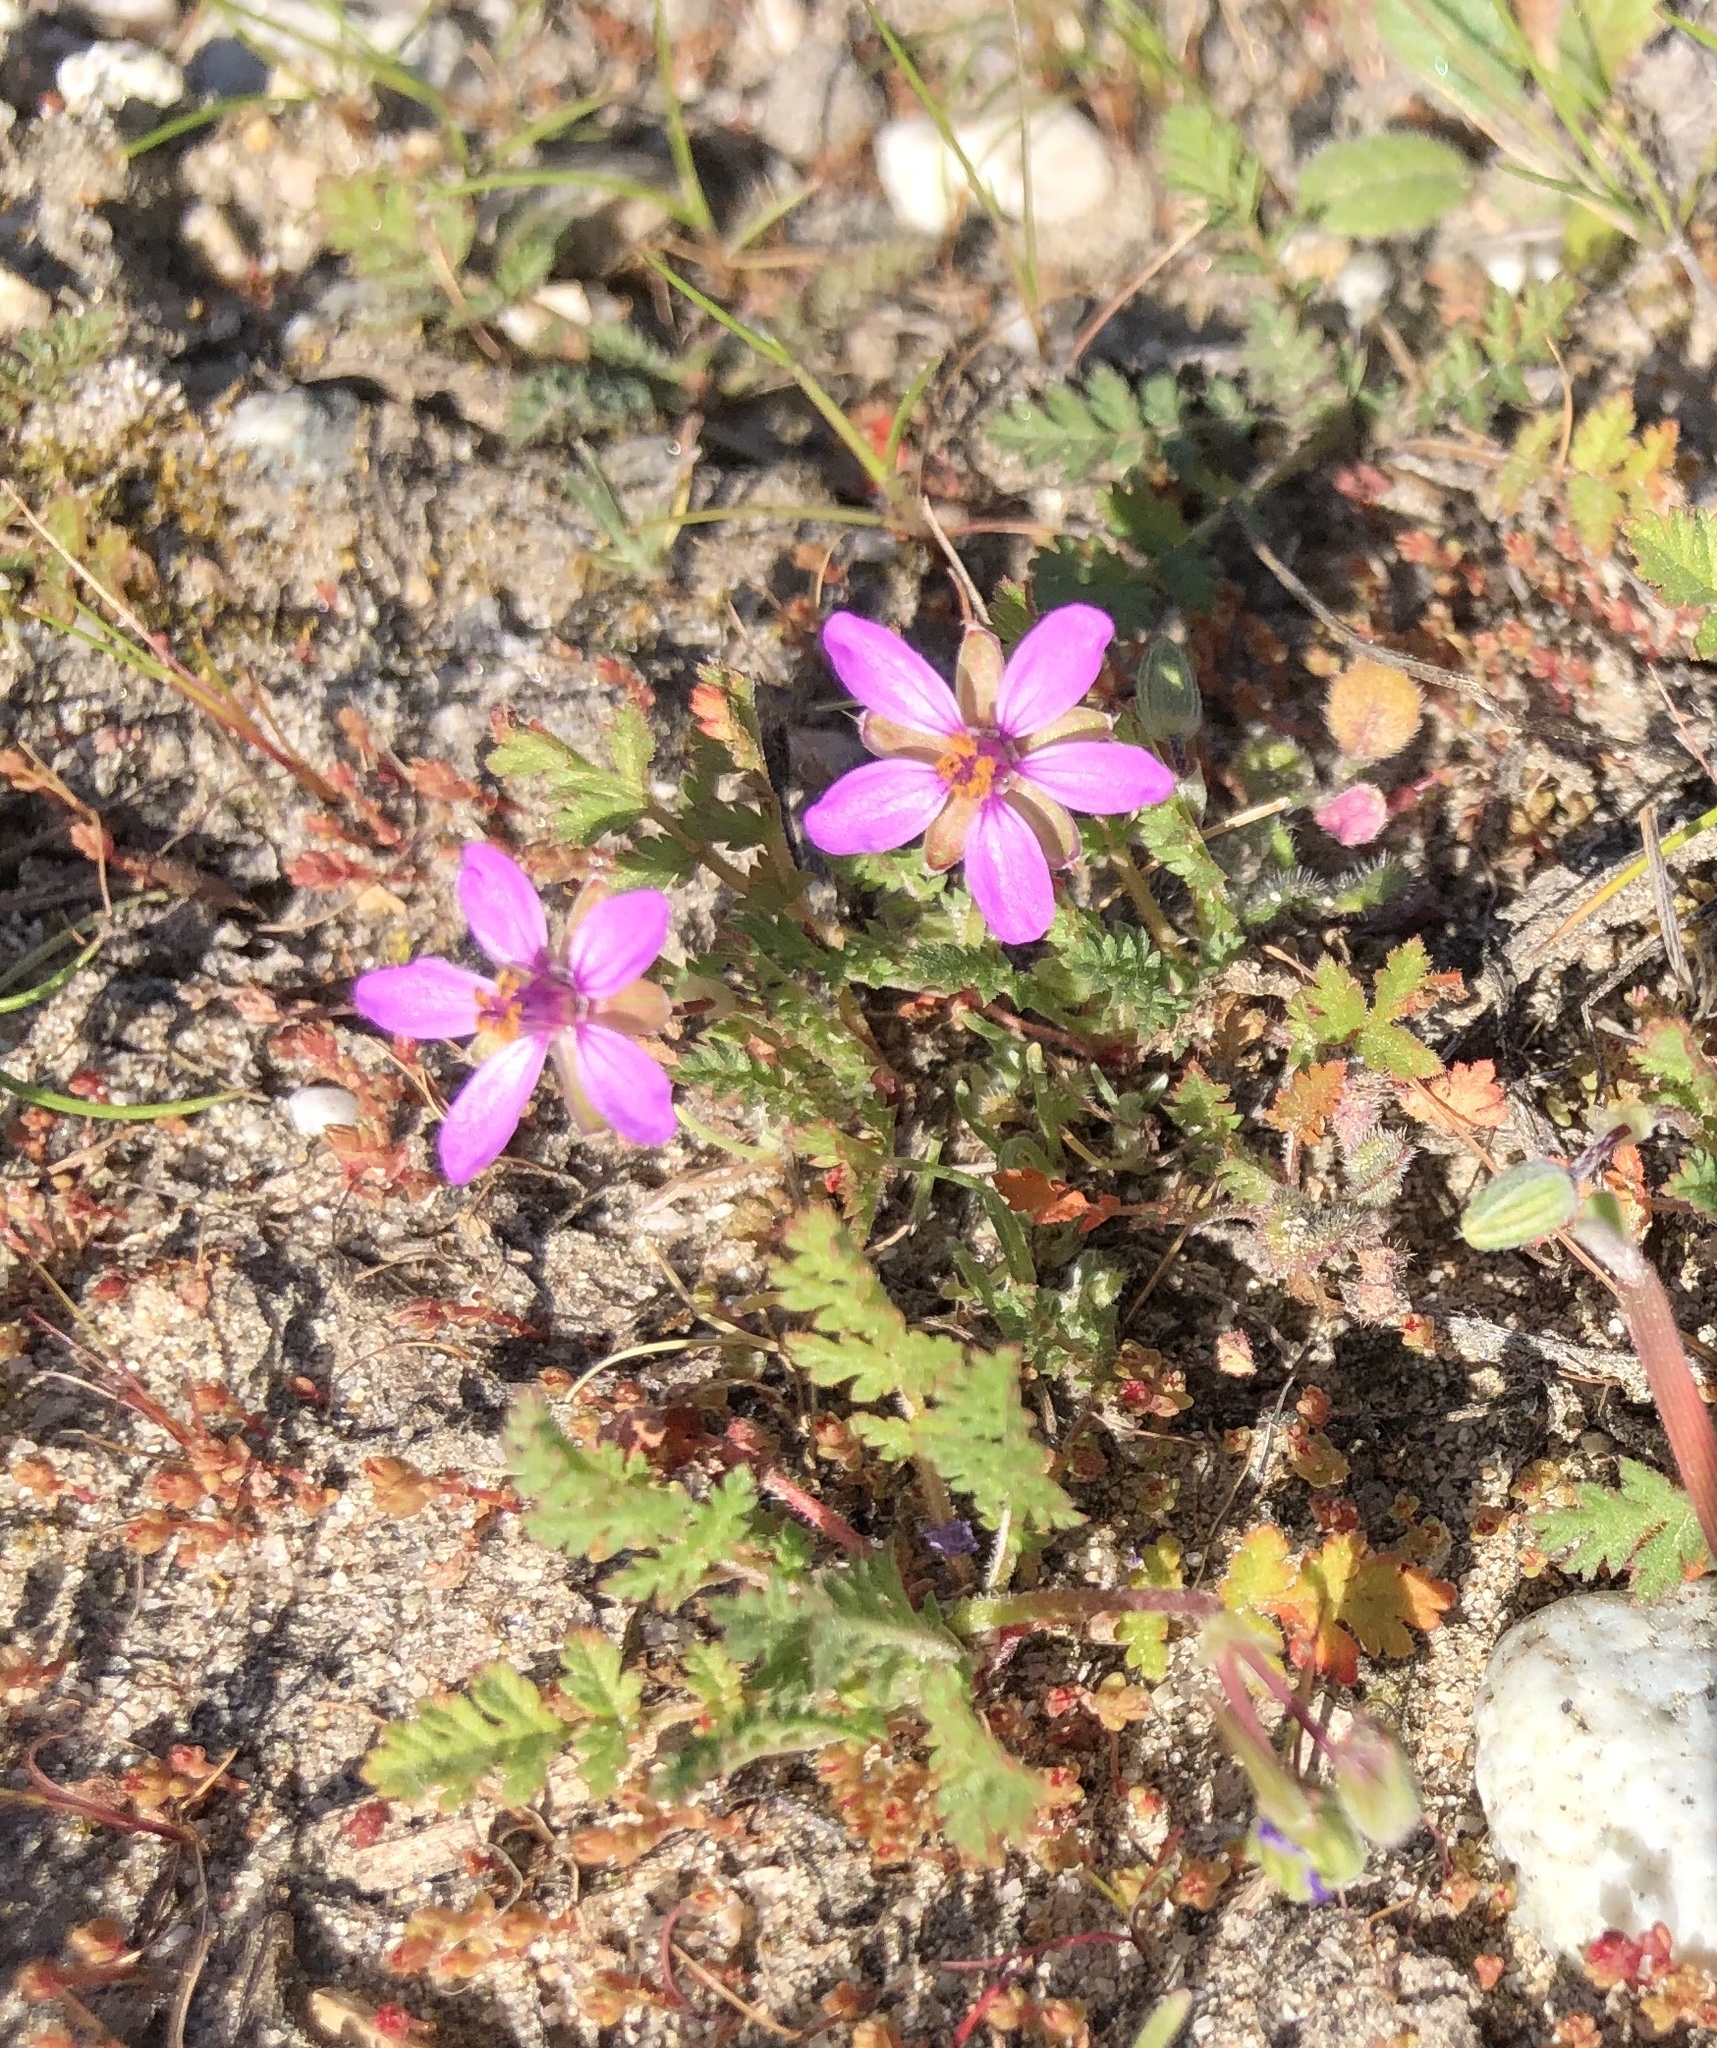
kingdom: Plantae
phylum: Tracheophyta
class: Magnoliopsida
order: Geraniales
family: Geraniaceae
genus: Erodium
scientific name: Erodium cicutarium
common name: Common stork's-bill
